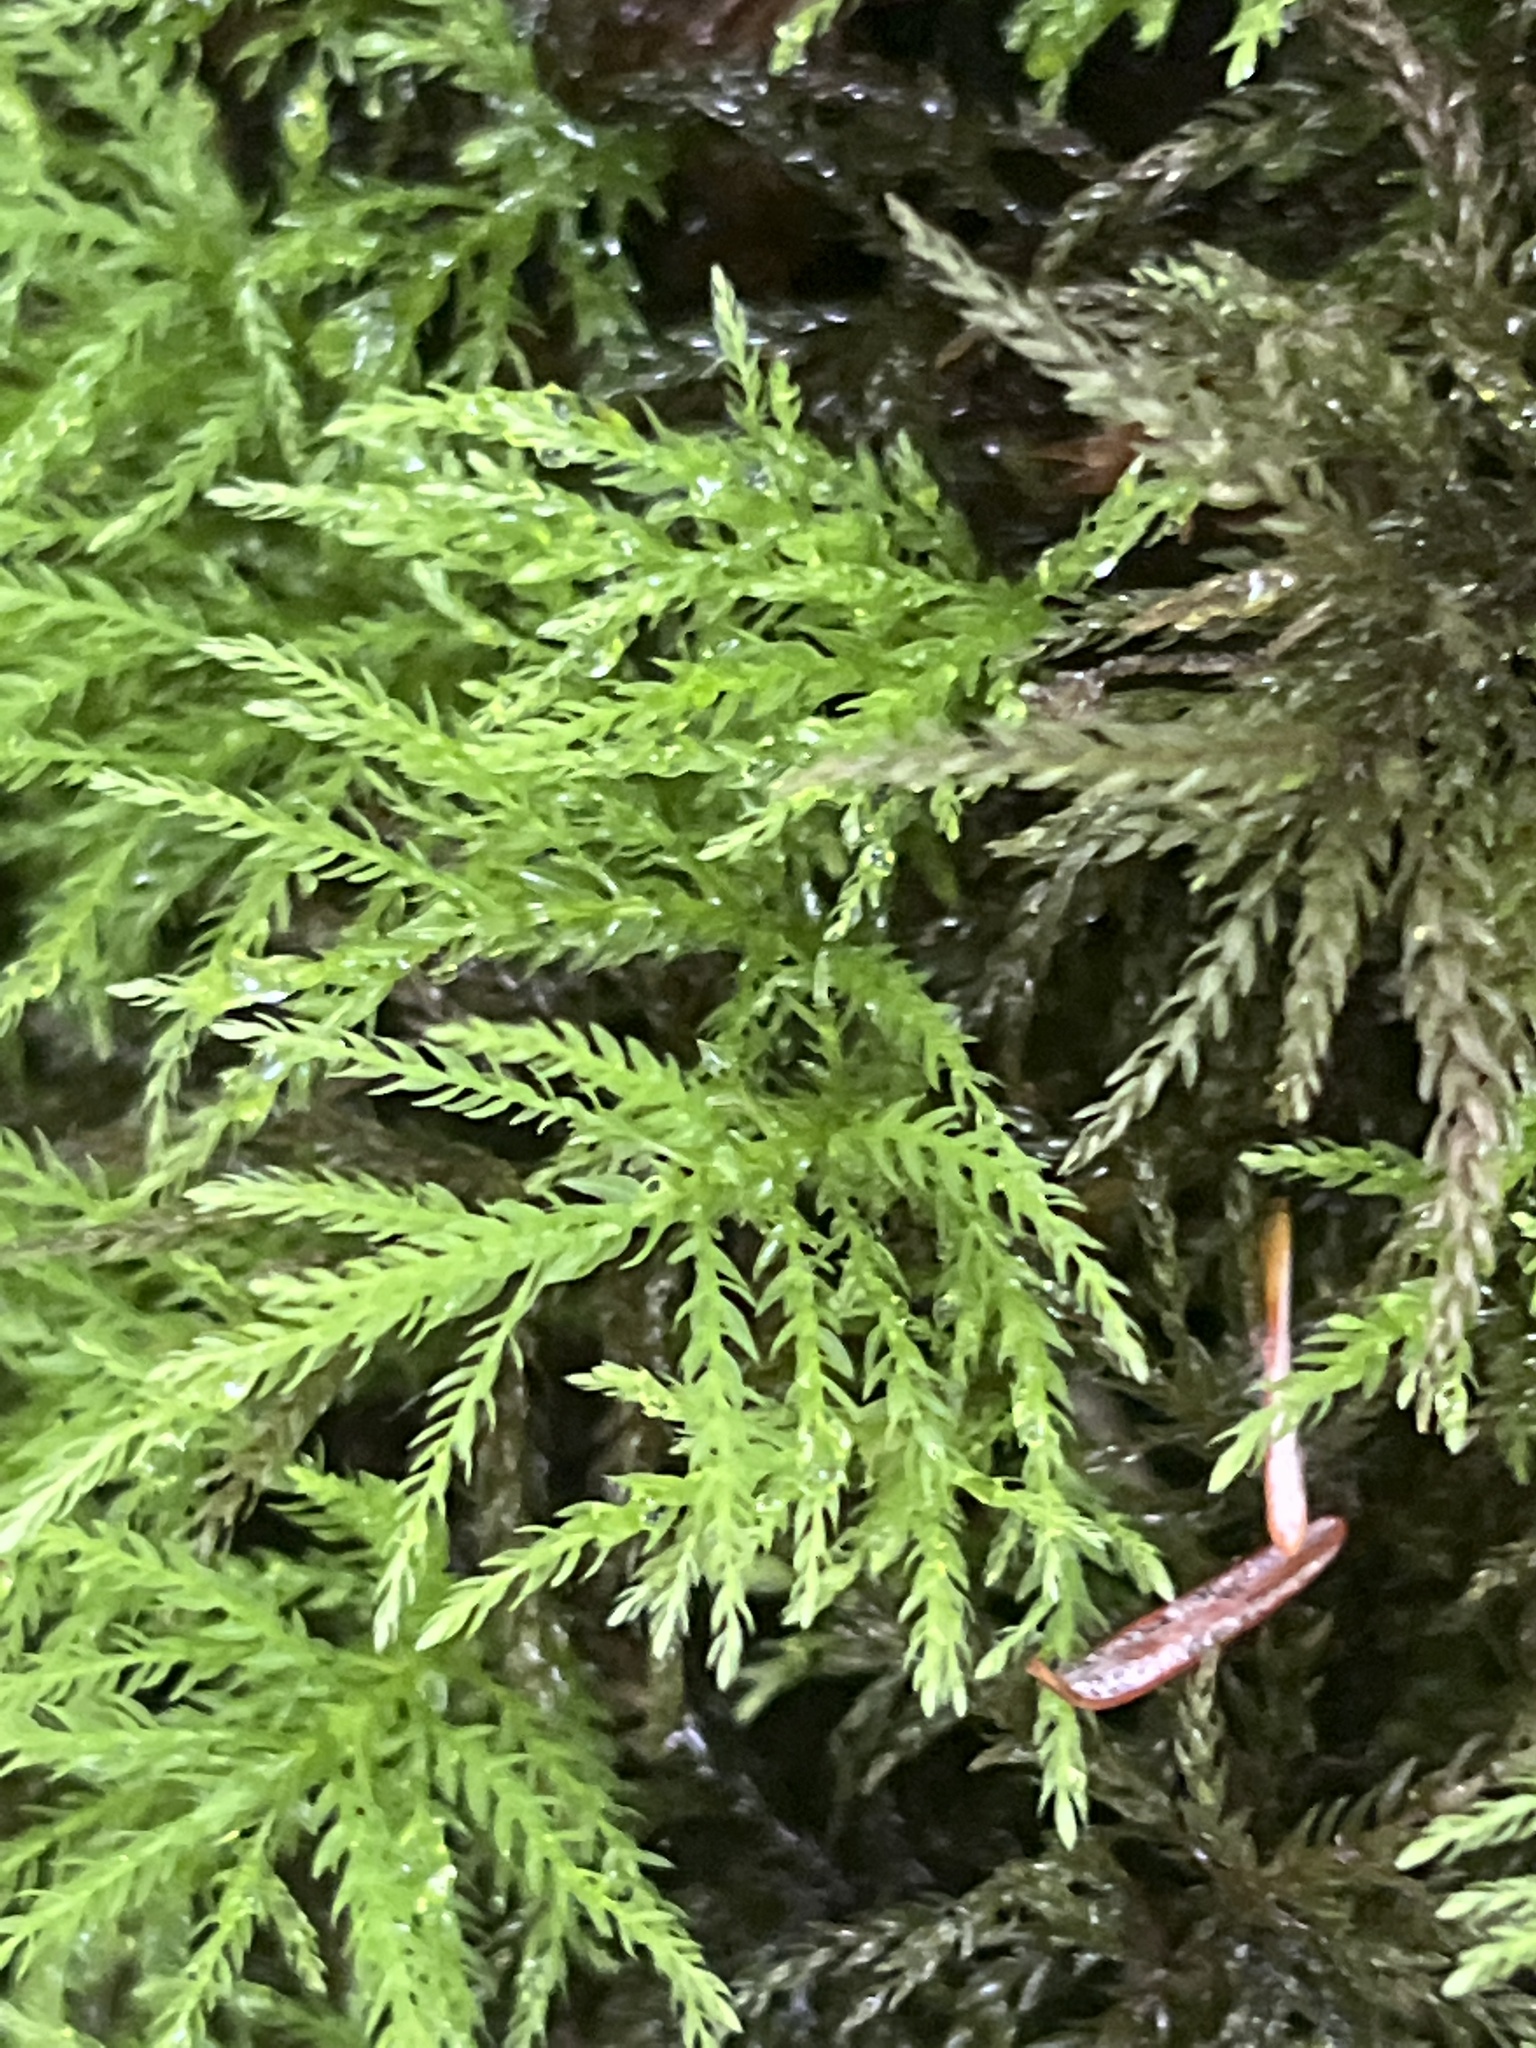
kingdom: Plantae
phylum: Bryophyta
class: Bryopsida
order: Bryales
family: Mniaceae
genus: Leucolepis
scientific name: Leucolepis acanthoneura
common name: Leucolepis umbrella moss
